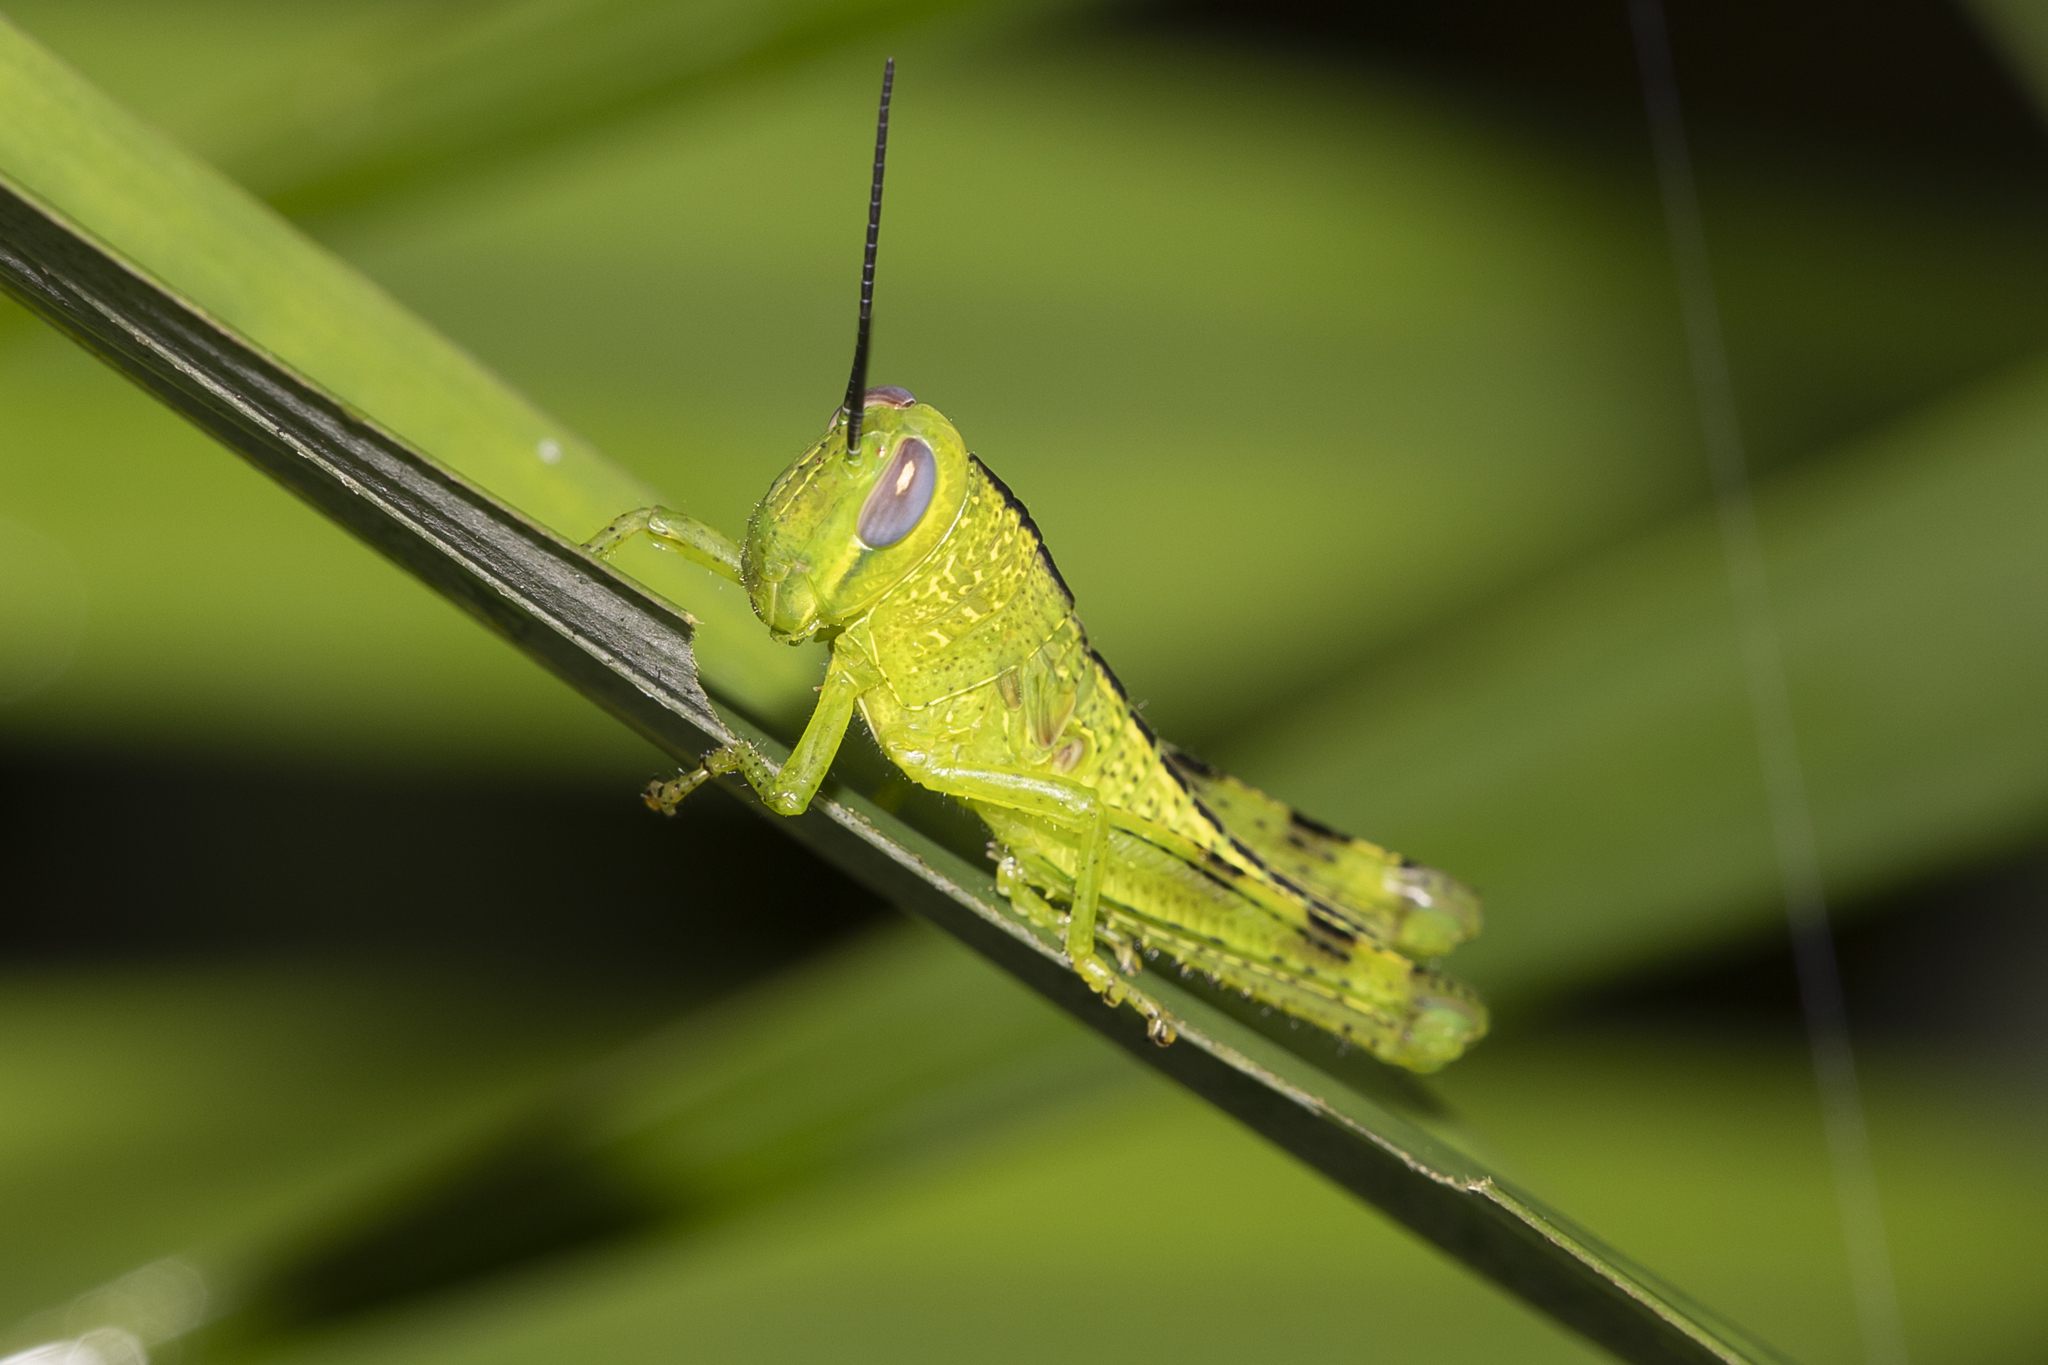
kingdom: Animalia
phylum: Arthropoda
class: Insecta
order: Orthoptera
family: Acrididae
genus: Valanga
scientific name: Valanga irregularis
